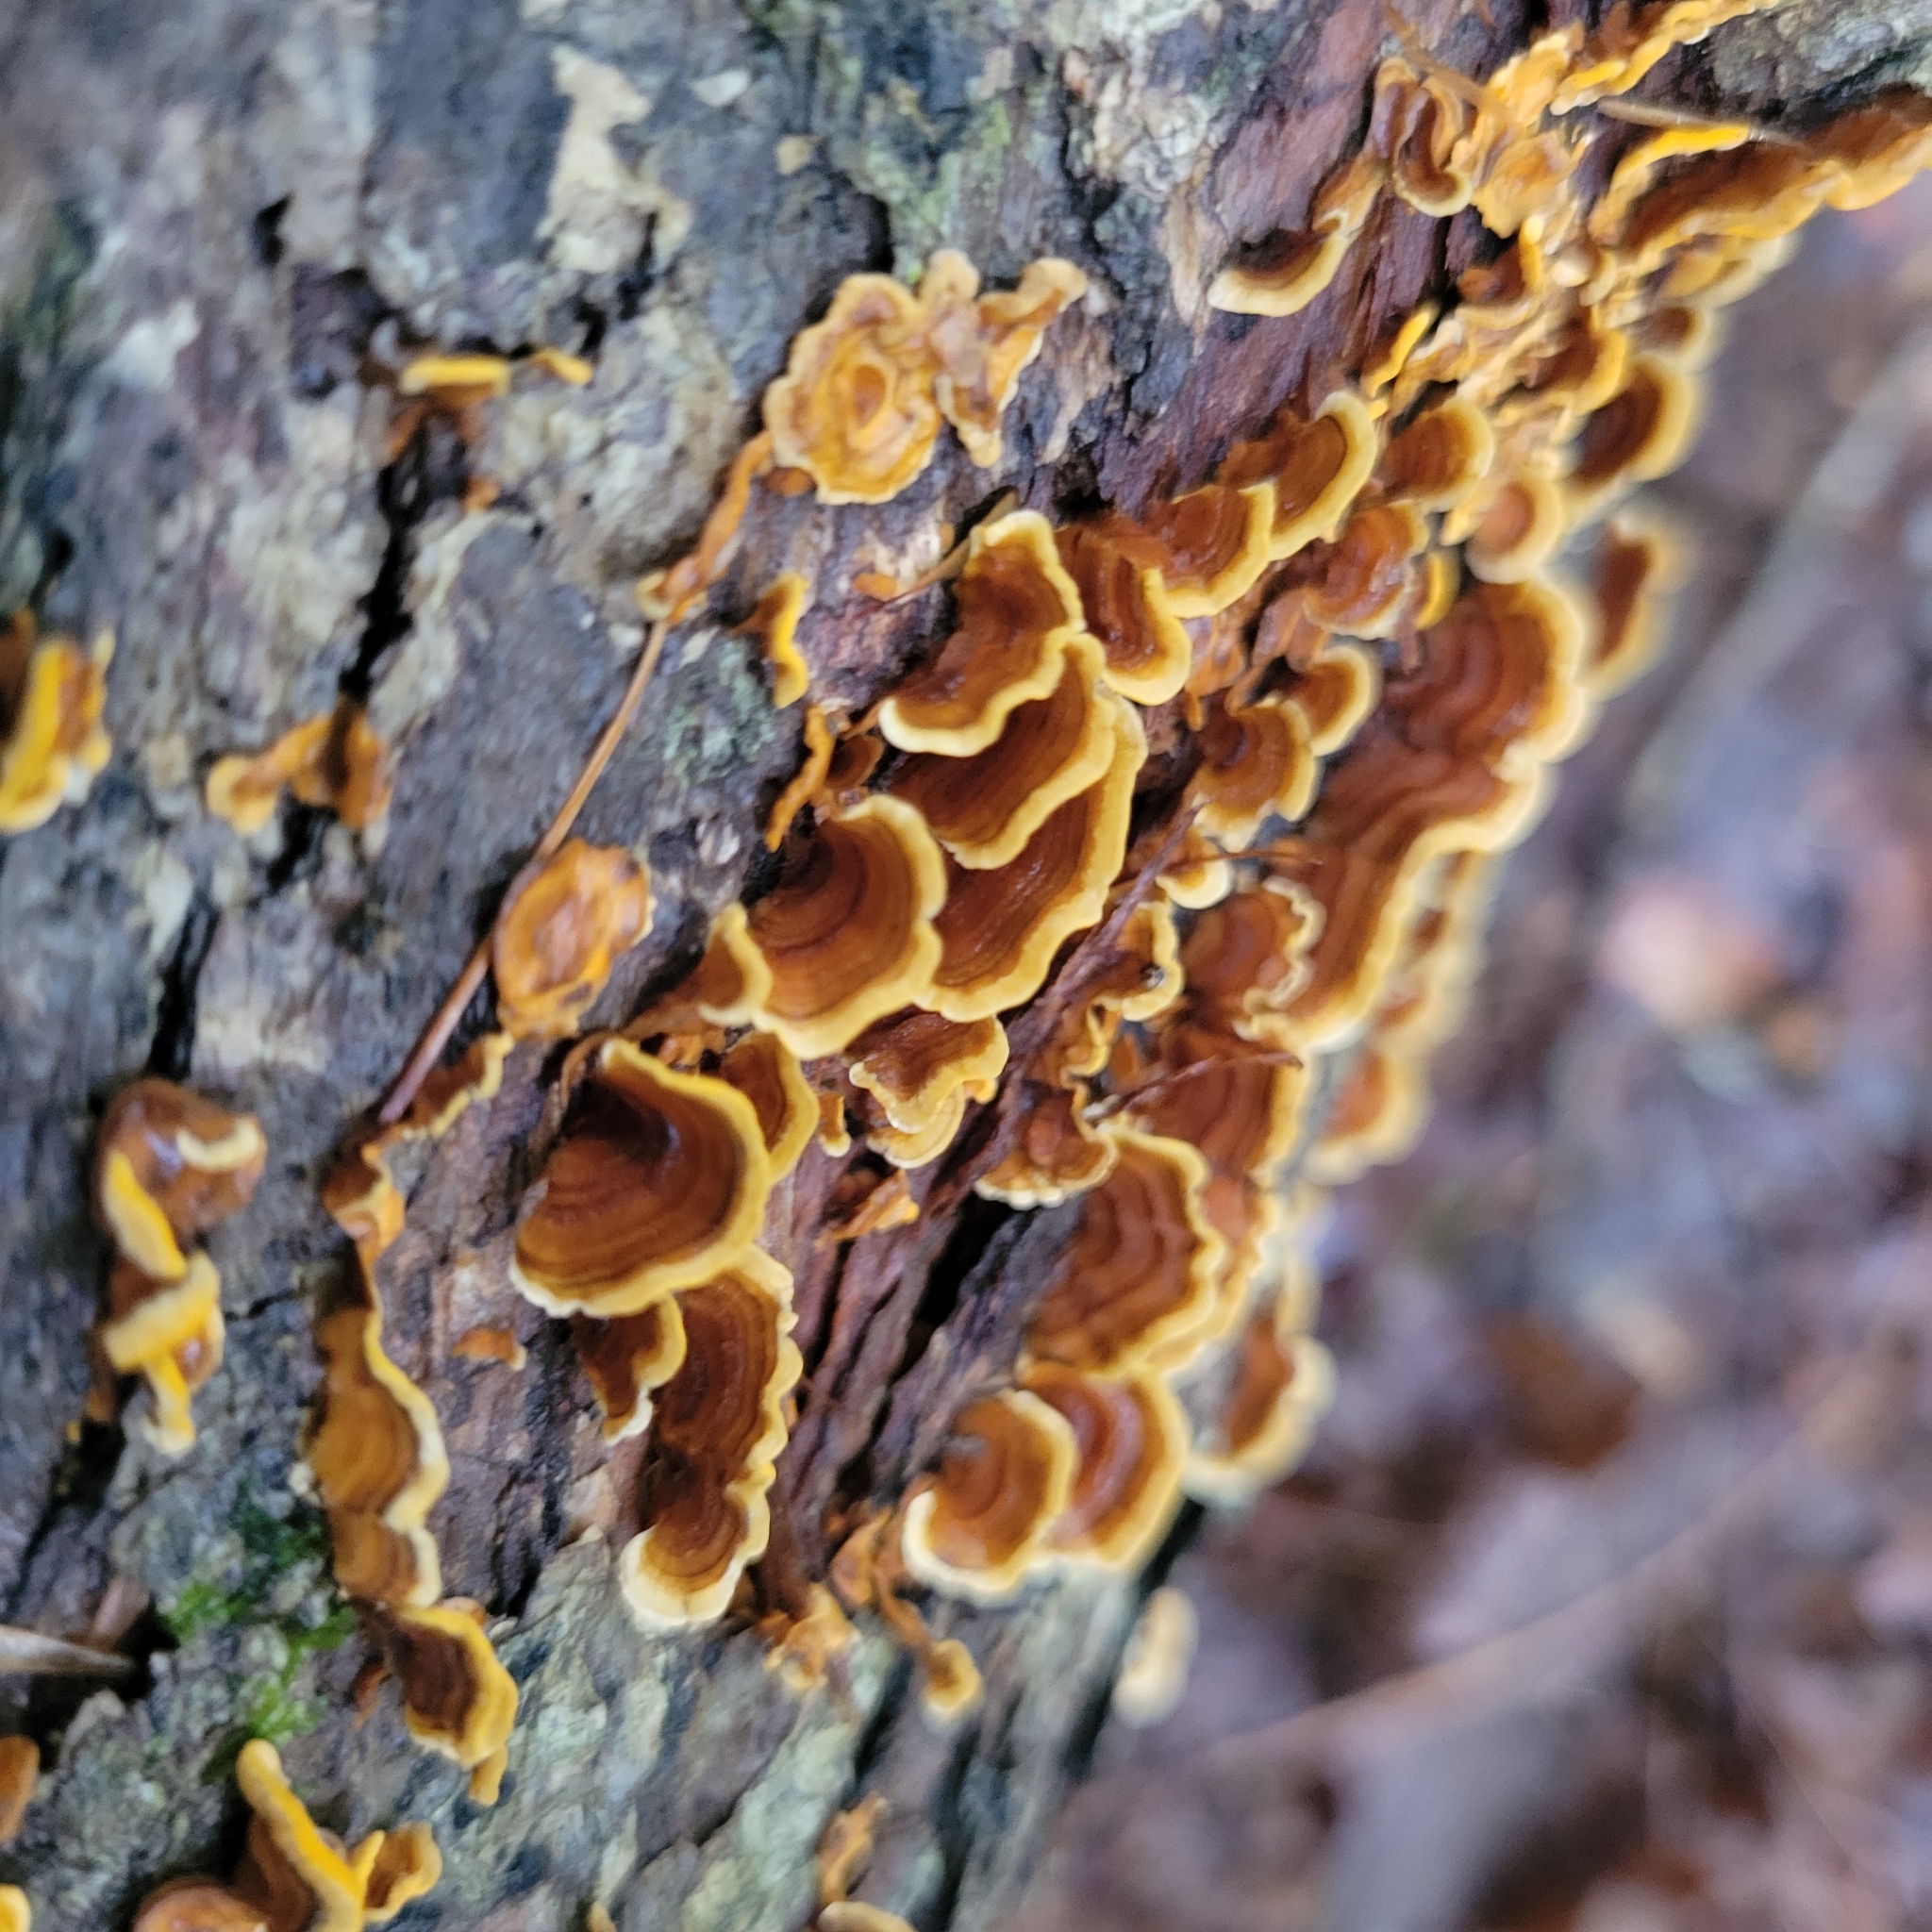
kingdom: Fungi
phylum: Basidiomycota
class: Agaricomycetes
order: Russulales
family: Stereaceae
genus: Stereum
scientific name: Stereum complicatum
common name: Crowded parchment
